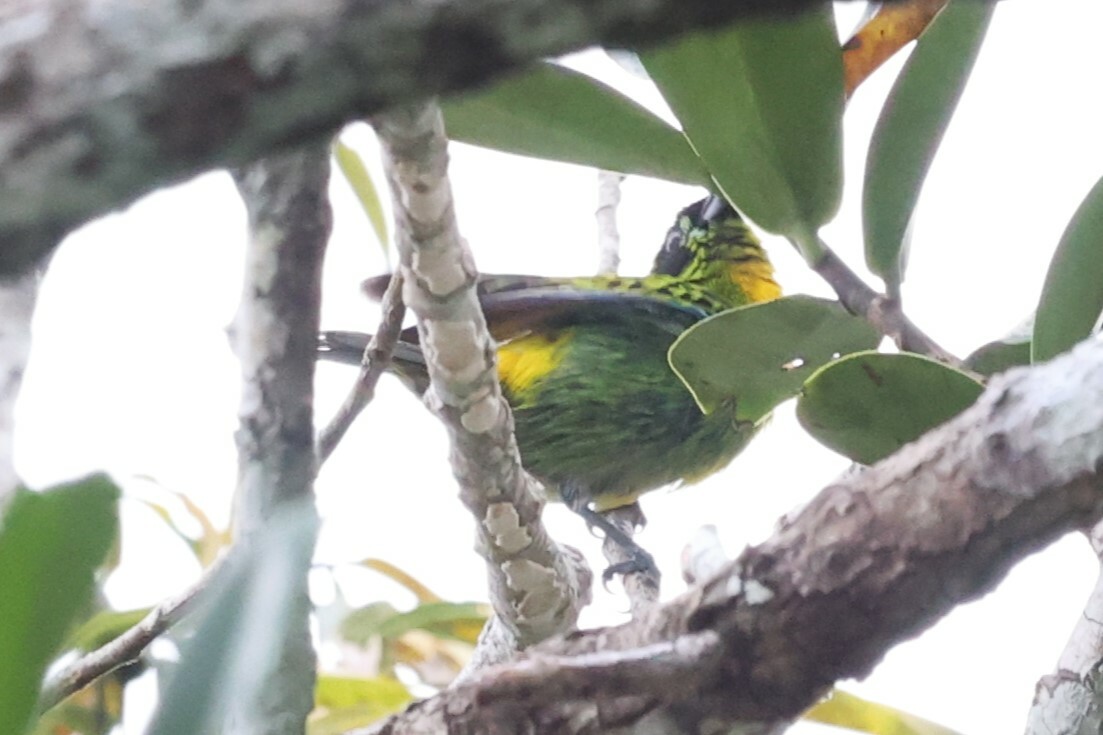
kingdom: Animalia
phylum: Chordata
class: Aves
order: Passeriformes
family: Thraupidae
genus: Tangara
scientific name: Tangara schrankii
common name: Green-and-gold tanager
